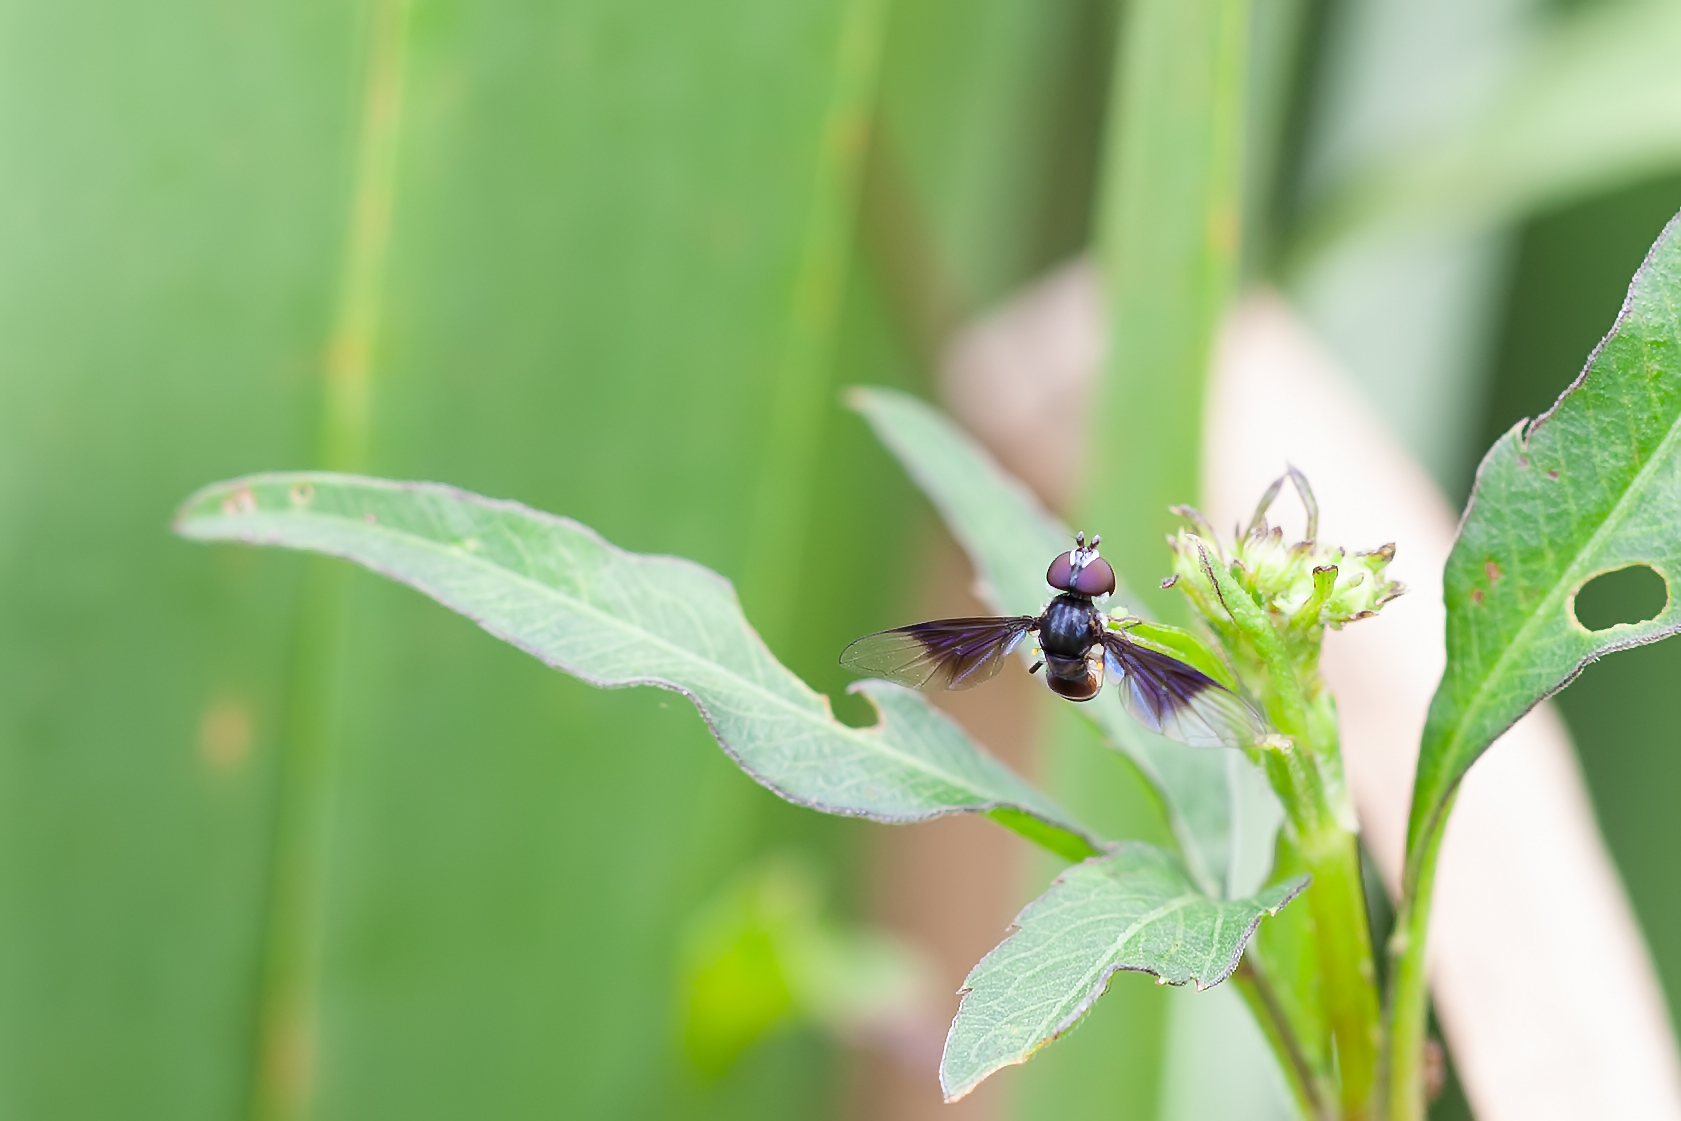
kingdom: Animalia
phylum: Arthropoda
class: Insecta
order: Diptera
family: Syrphidae
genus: Ocyptamus
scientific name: Ocyptamus dimidiatus
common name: Syrphid fly
